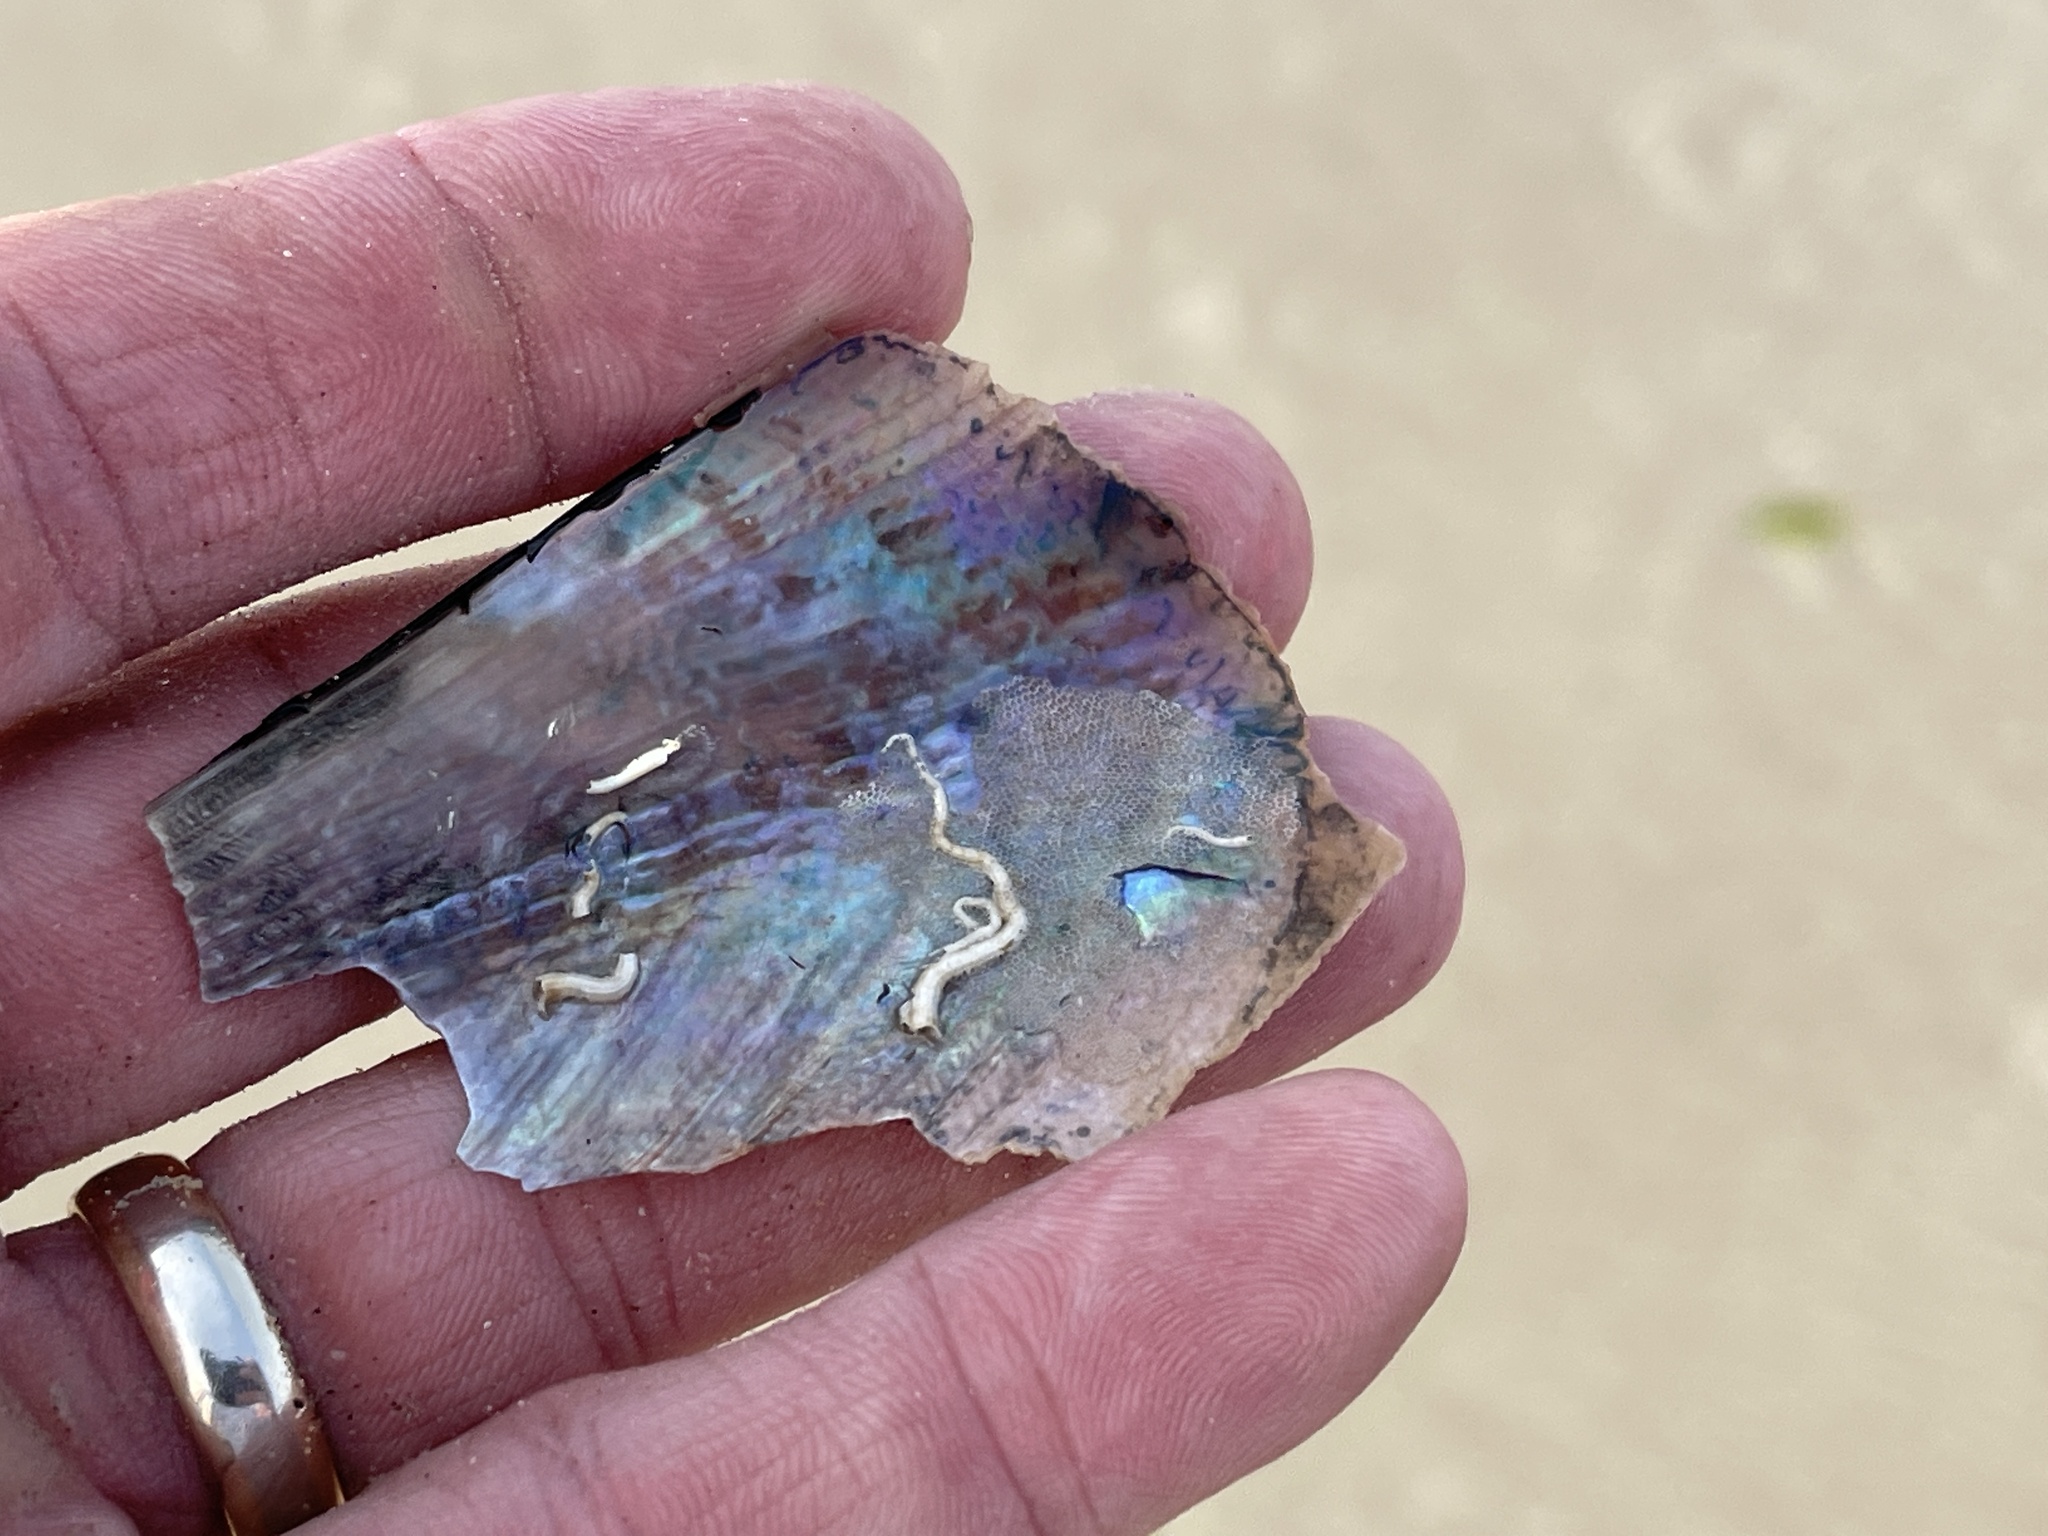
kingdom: Animalia
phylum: Mollusca
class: Bivalvia
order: Ostreida
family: Pinnidae
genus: Atrina
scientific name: Atrina serrata
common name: Saw-toothed penshell
